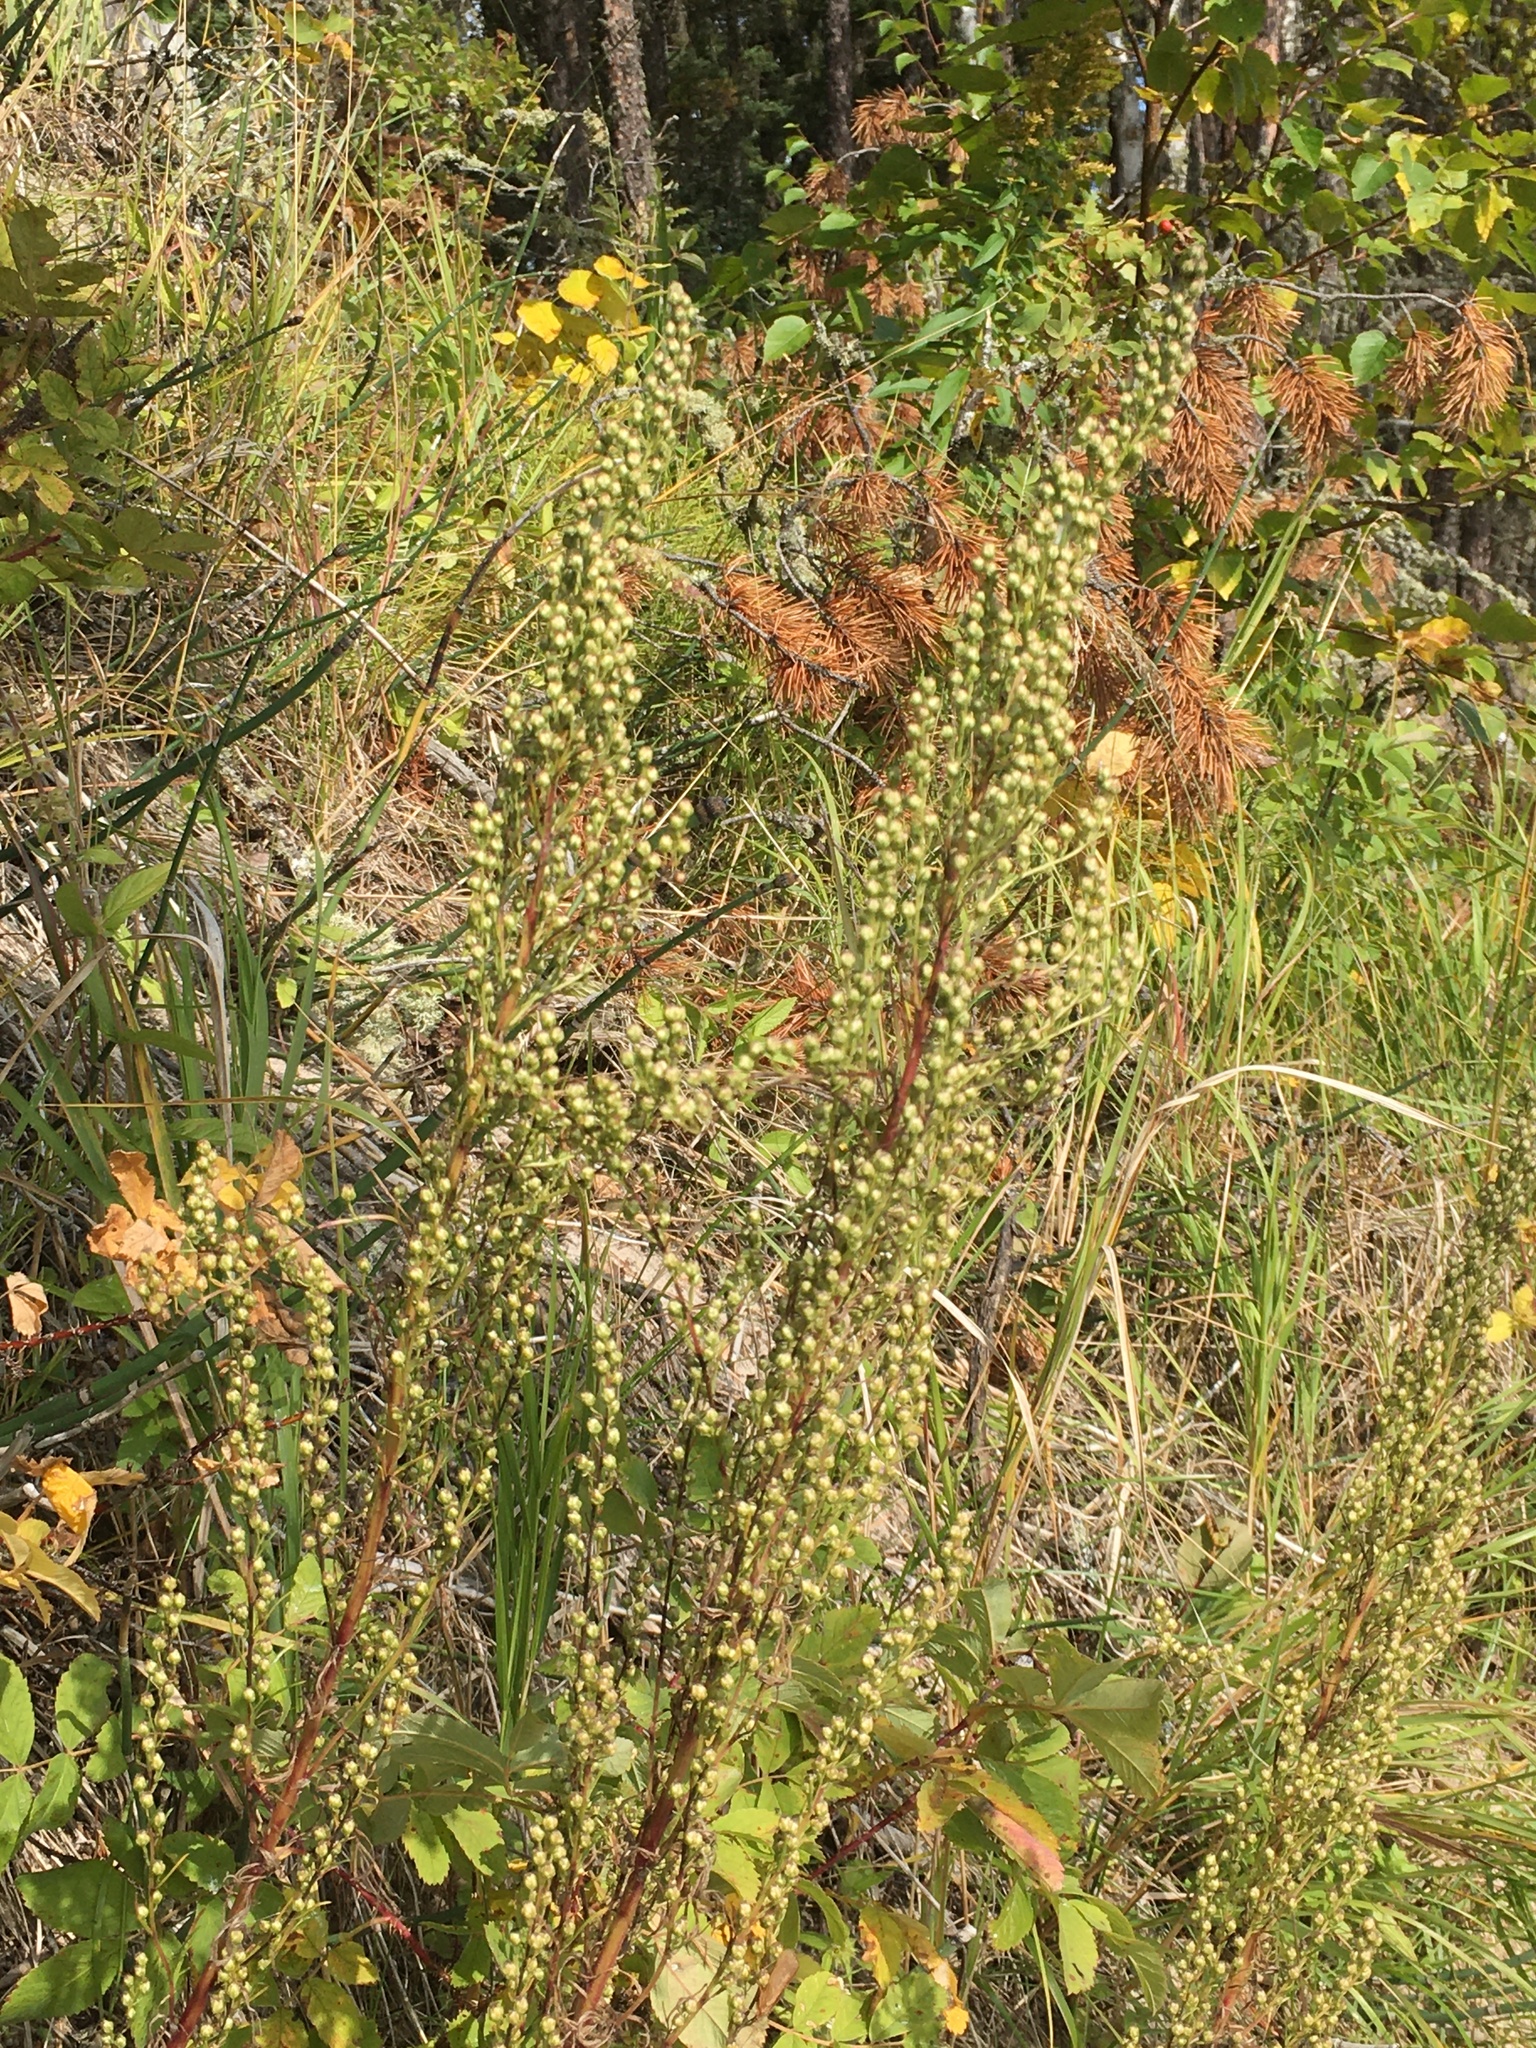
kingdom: Plantae
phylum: Tracheophyta
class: Magnoliopsida
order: Asterales
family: Asteraceae
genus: Artemisia
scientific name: Artemisia campestris
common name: Field wormwood
